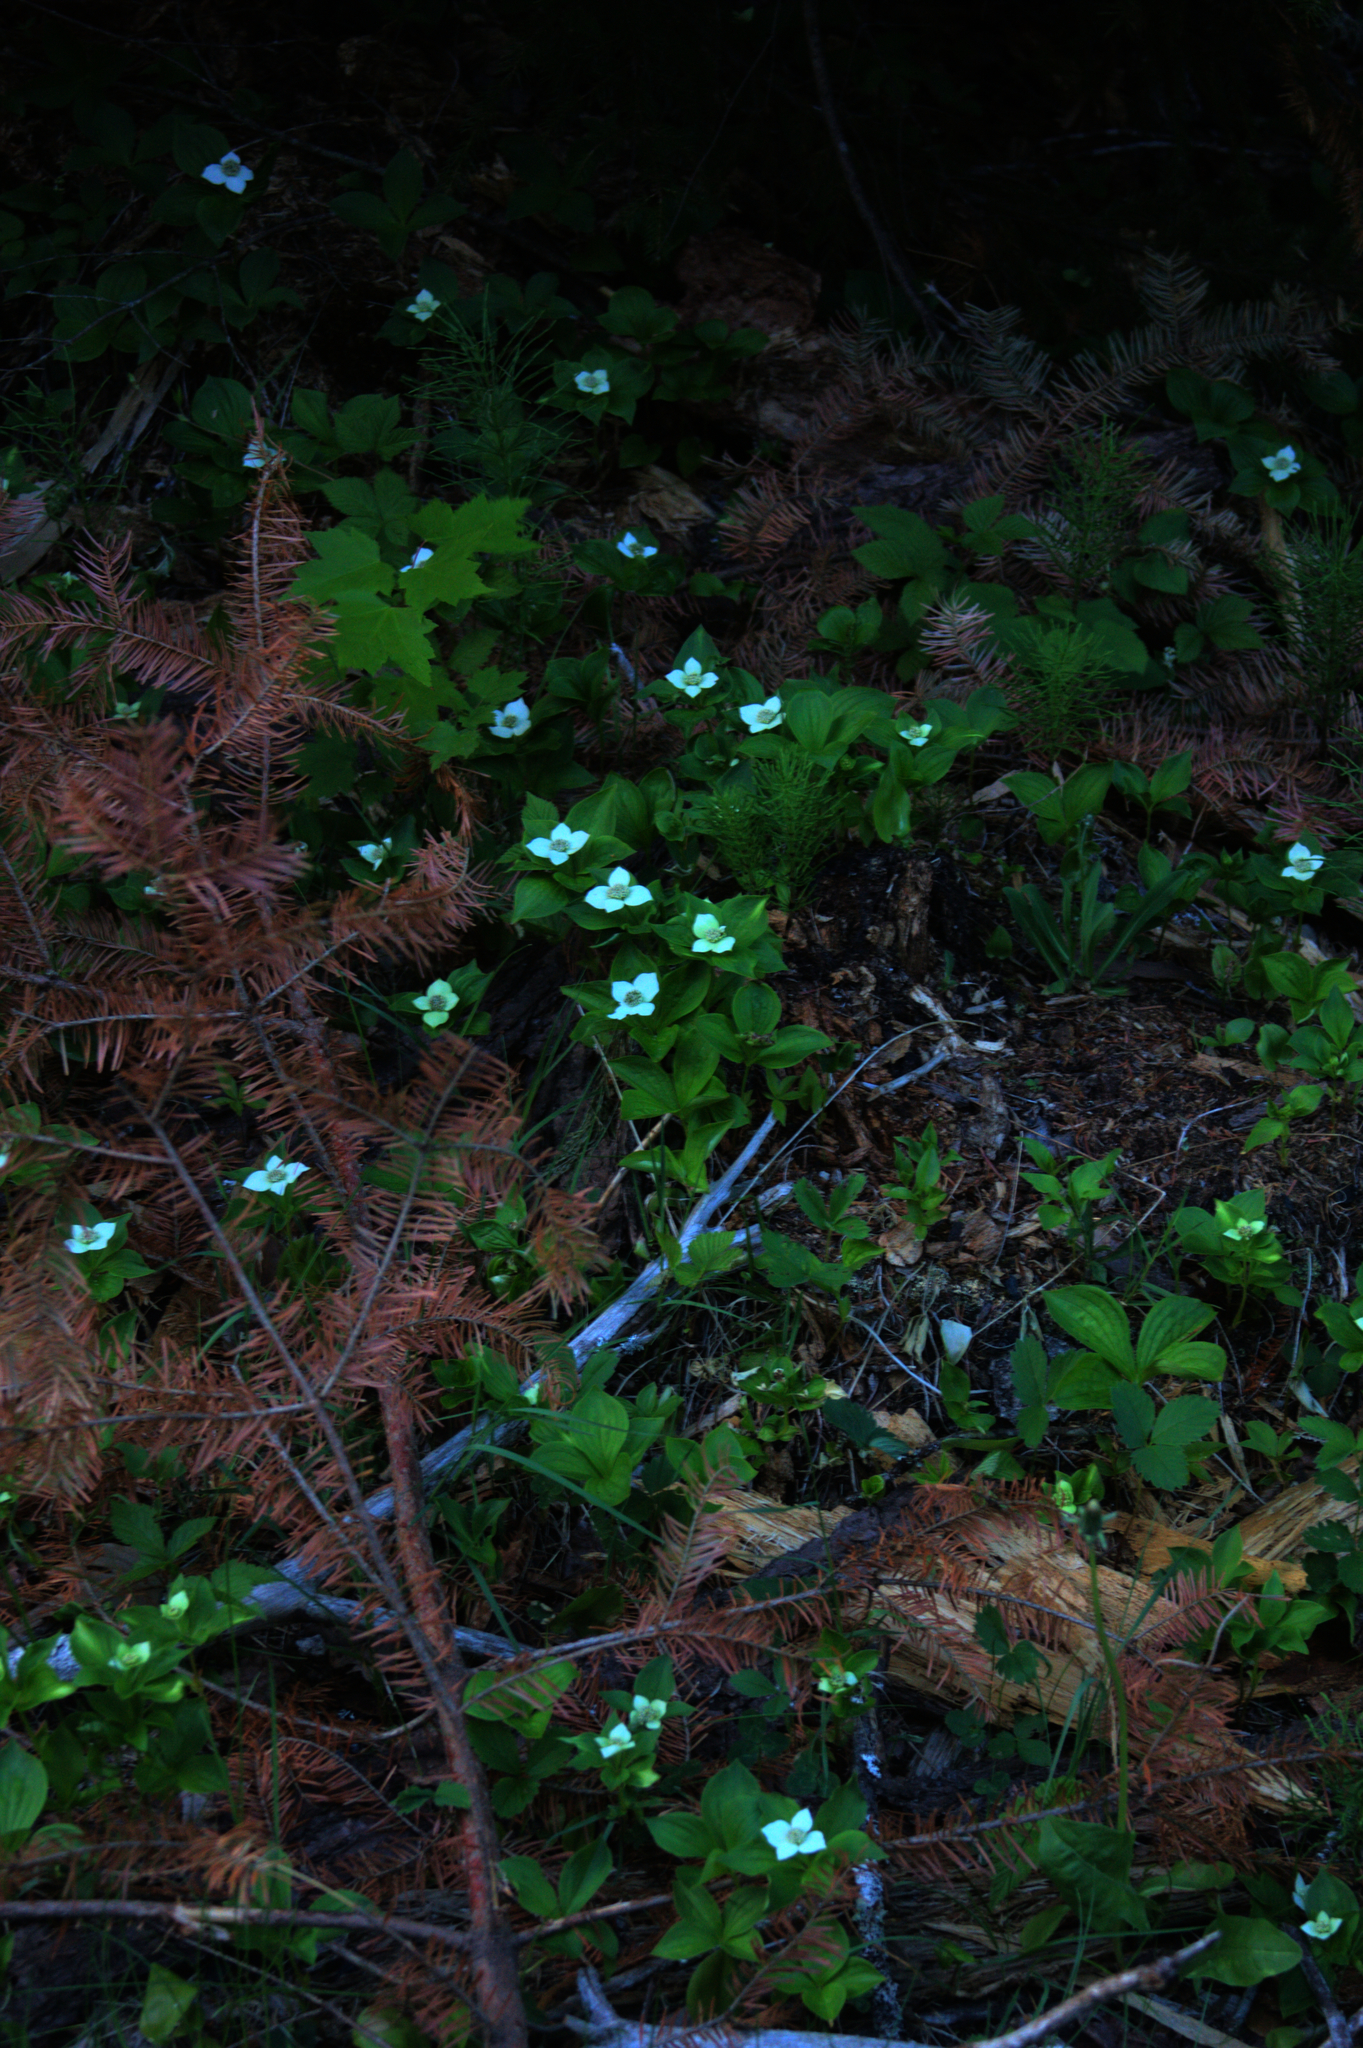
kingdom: Plantae
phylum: Tracheophyta
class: Magnoliopsida
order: Cornales
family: Cornaceae
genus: Cornus
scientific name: Cornus canadensis
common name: Creeping dogwood
